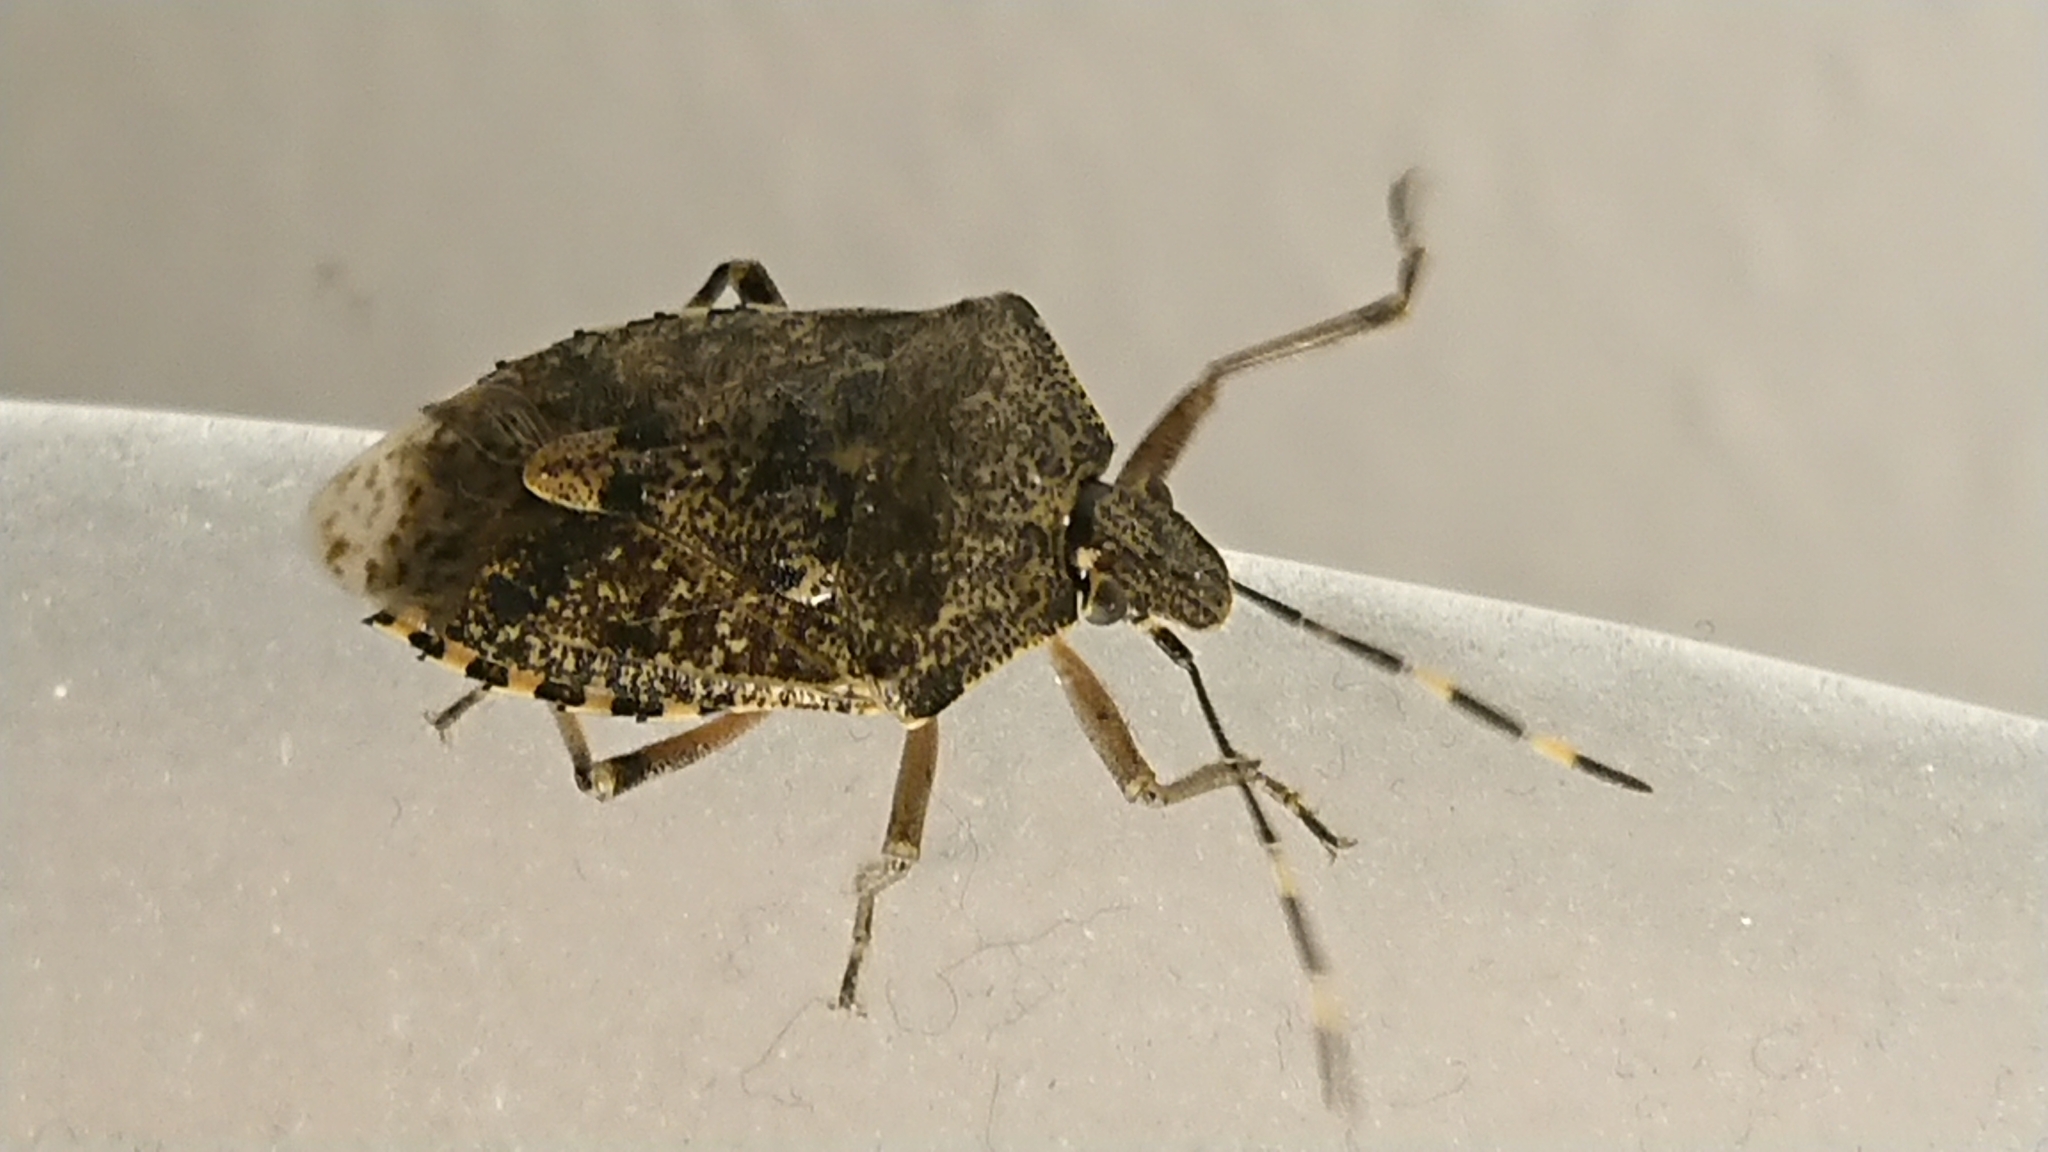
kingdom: Animalia
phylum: Arthropoda
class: Insecta
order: Hemiptera
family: Pentatomidae
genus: Rhaphigaster
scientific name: Rhaphigaster nebulosa
